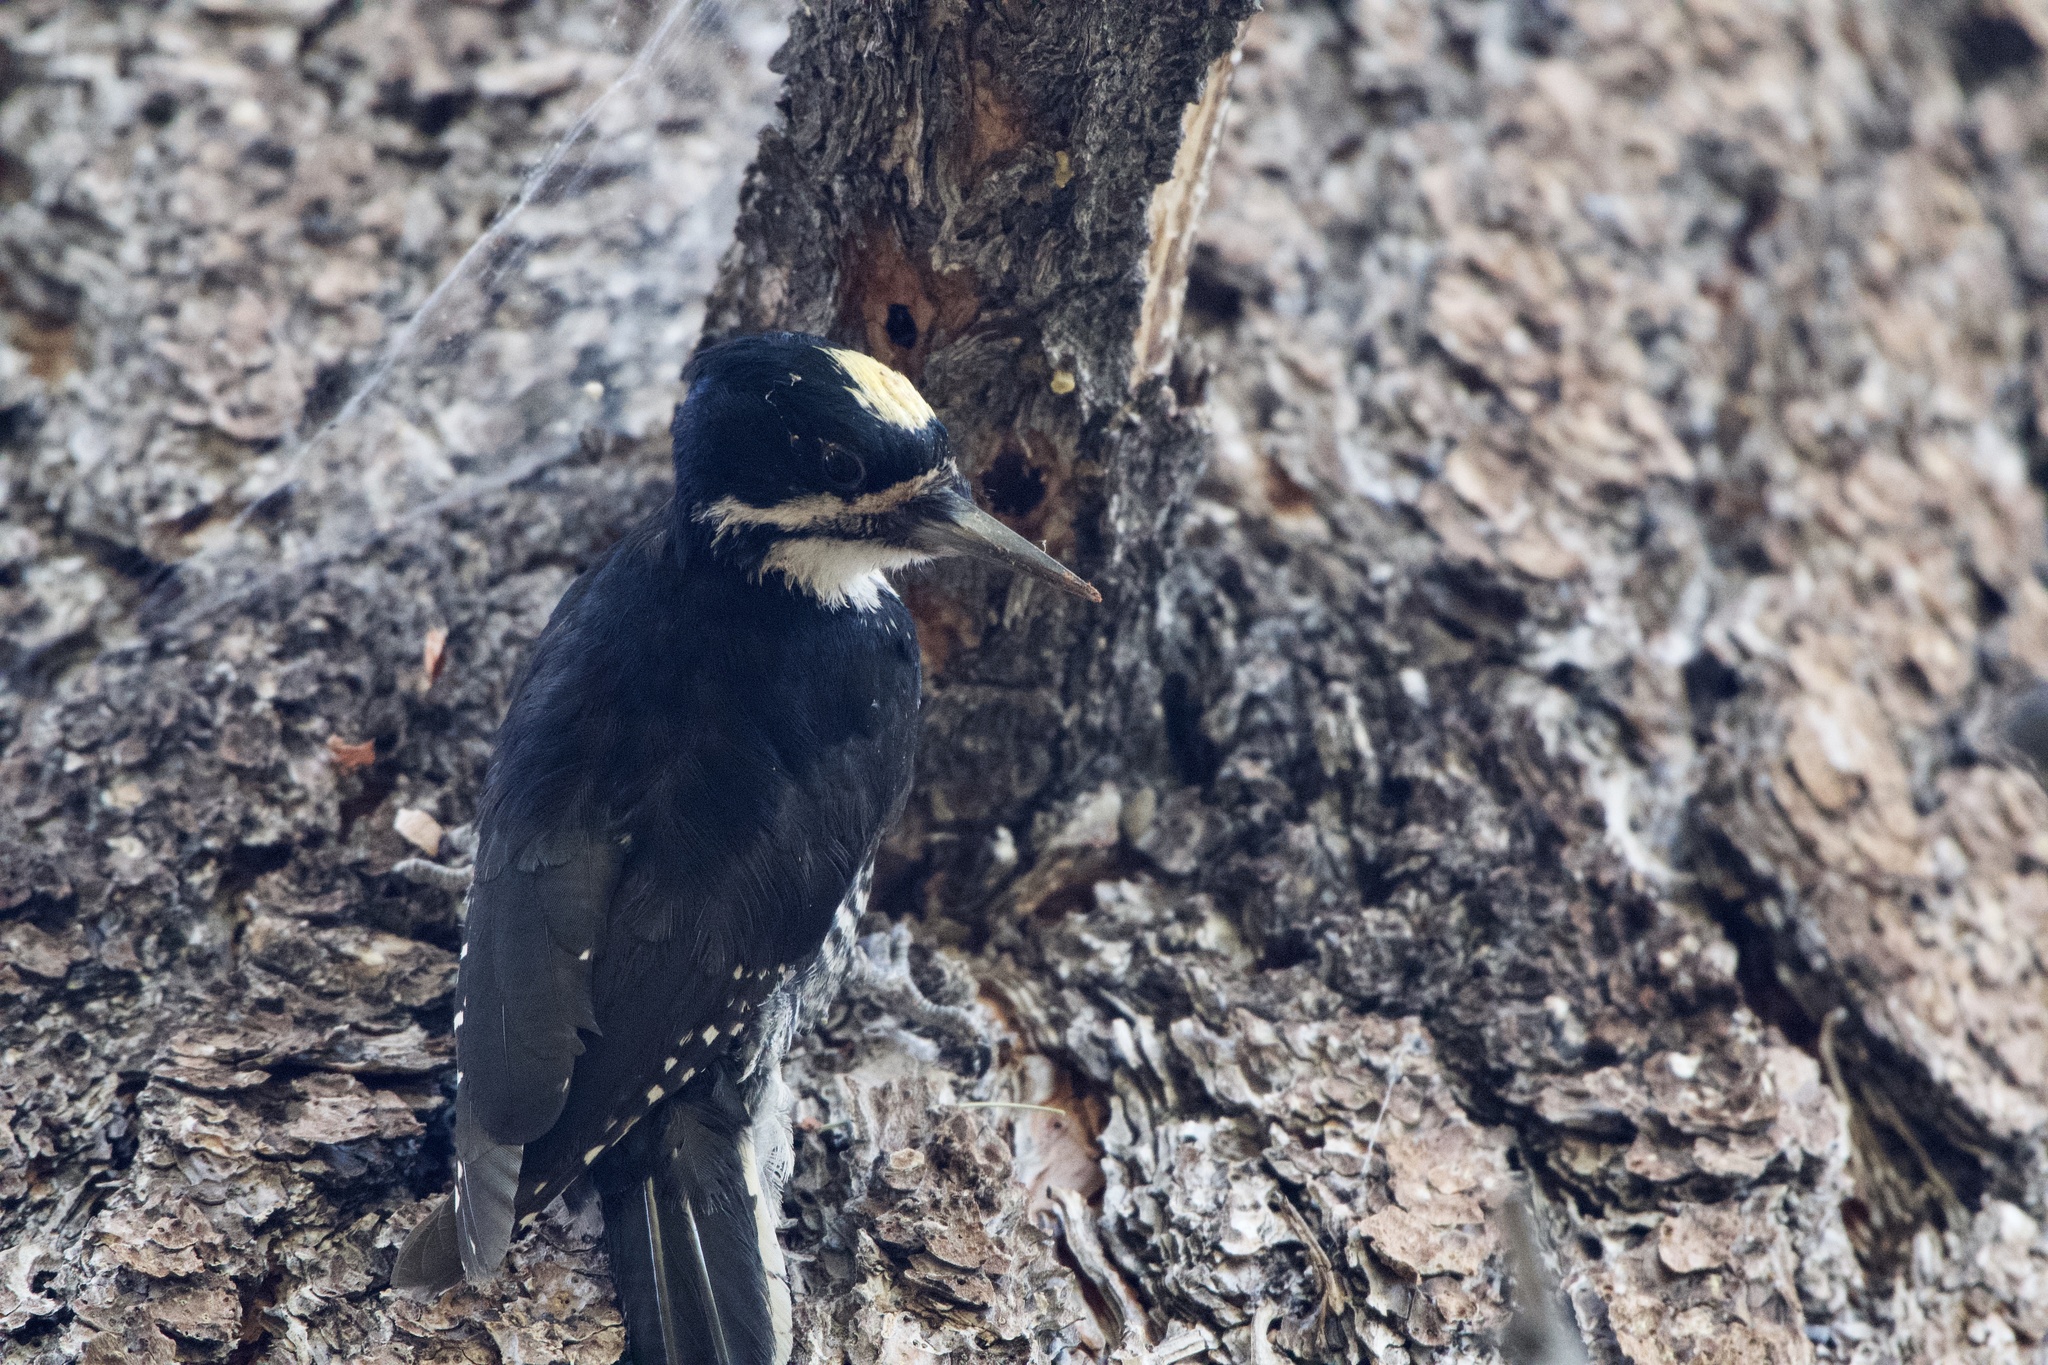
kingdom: Animalia
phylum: Chordata
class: Aves
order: Piciformes
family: Picidae
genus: Picoides
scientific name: Picoides arcticus
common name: Black-backed woodpecker
